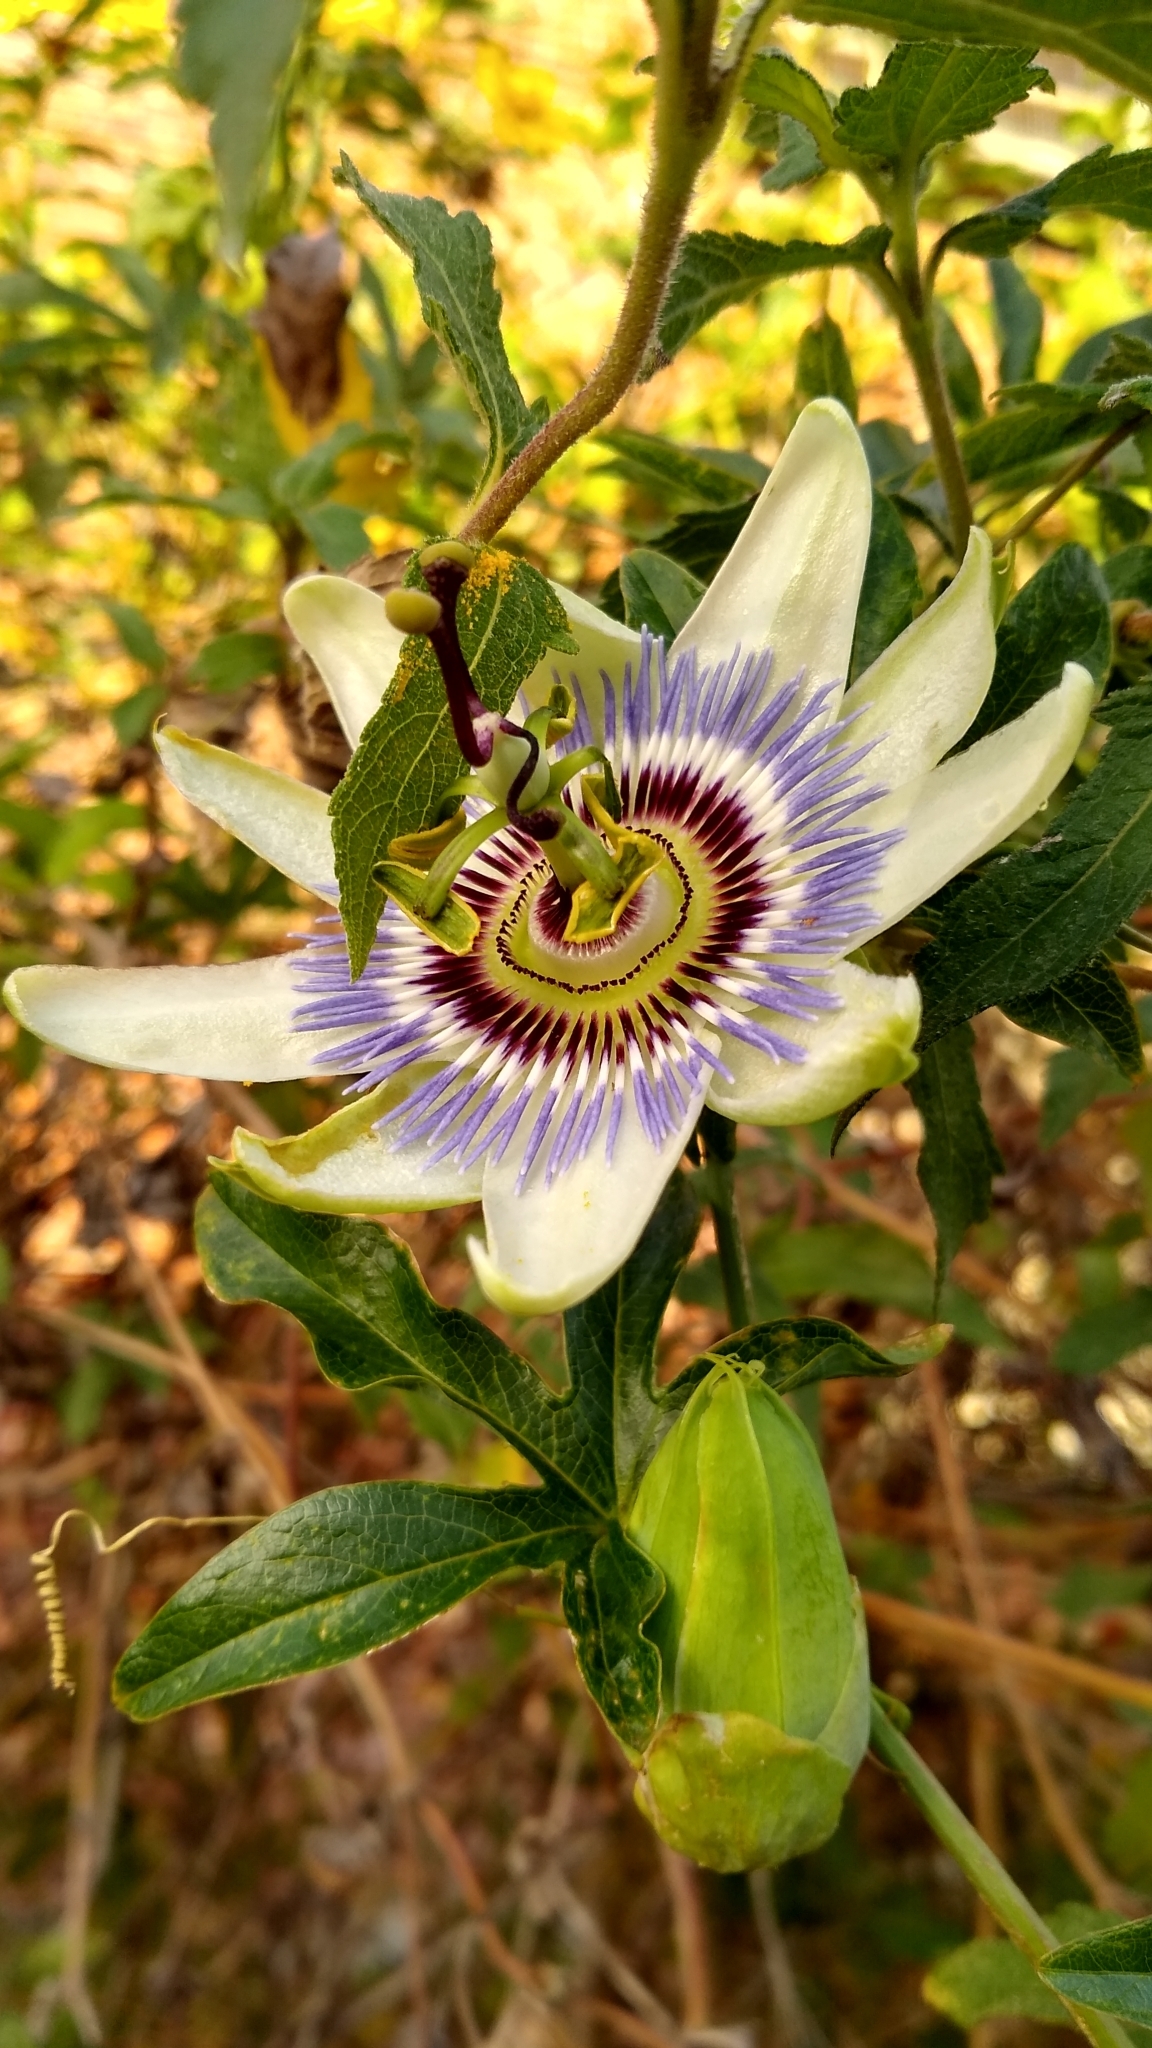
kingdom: Plantae
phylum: Tracheophyta
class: Magnoliopsida
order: Malpighiales
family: Passifloraceae
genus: Passiflora
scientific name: Passiflora caerulea
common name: Blue passionflower
